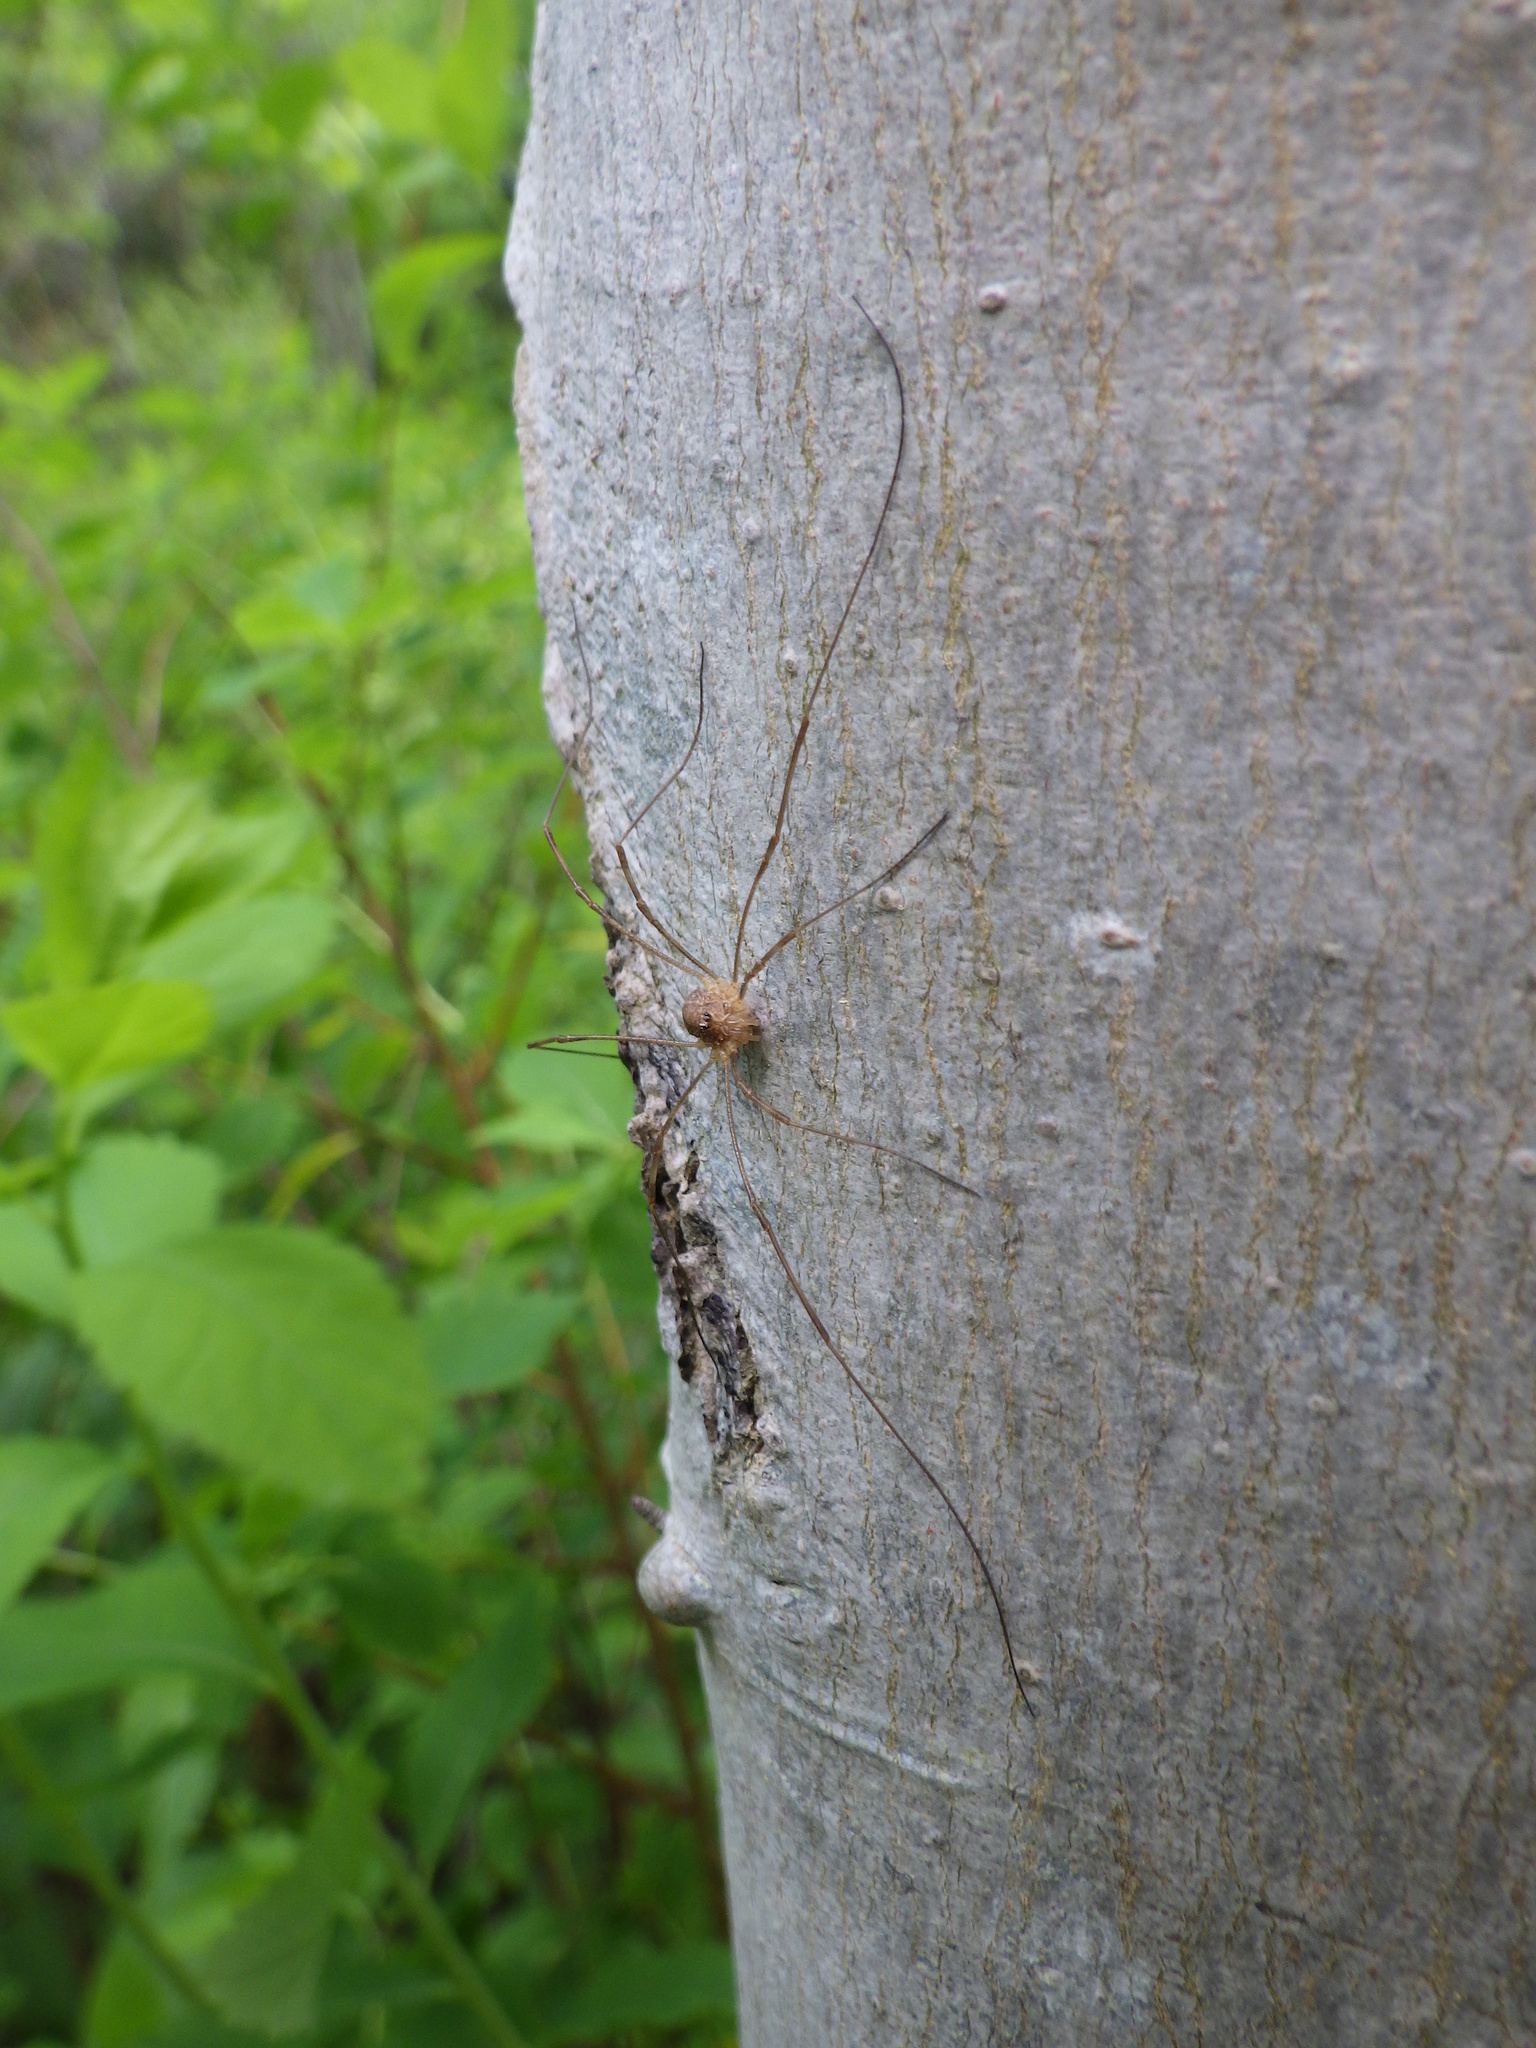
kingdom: Animalia
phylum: Arthropoda
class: Arachnida
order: Opiliones
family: Phalangiidae
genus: Rilaena
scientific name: Rilaena triangularis
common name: Spring harvestman
